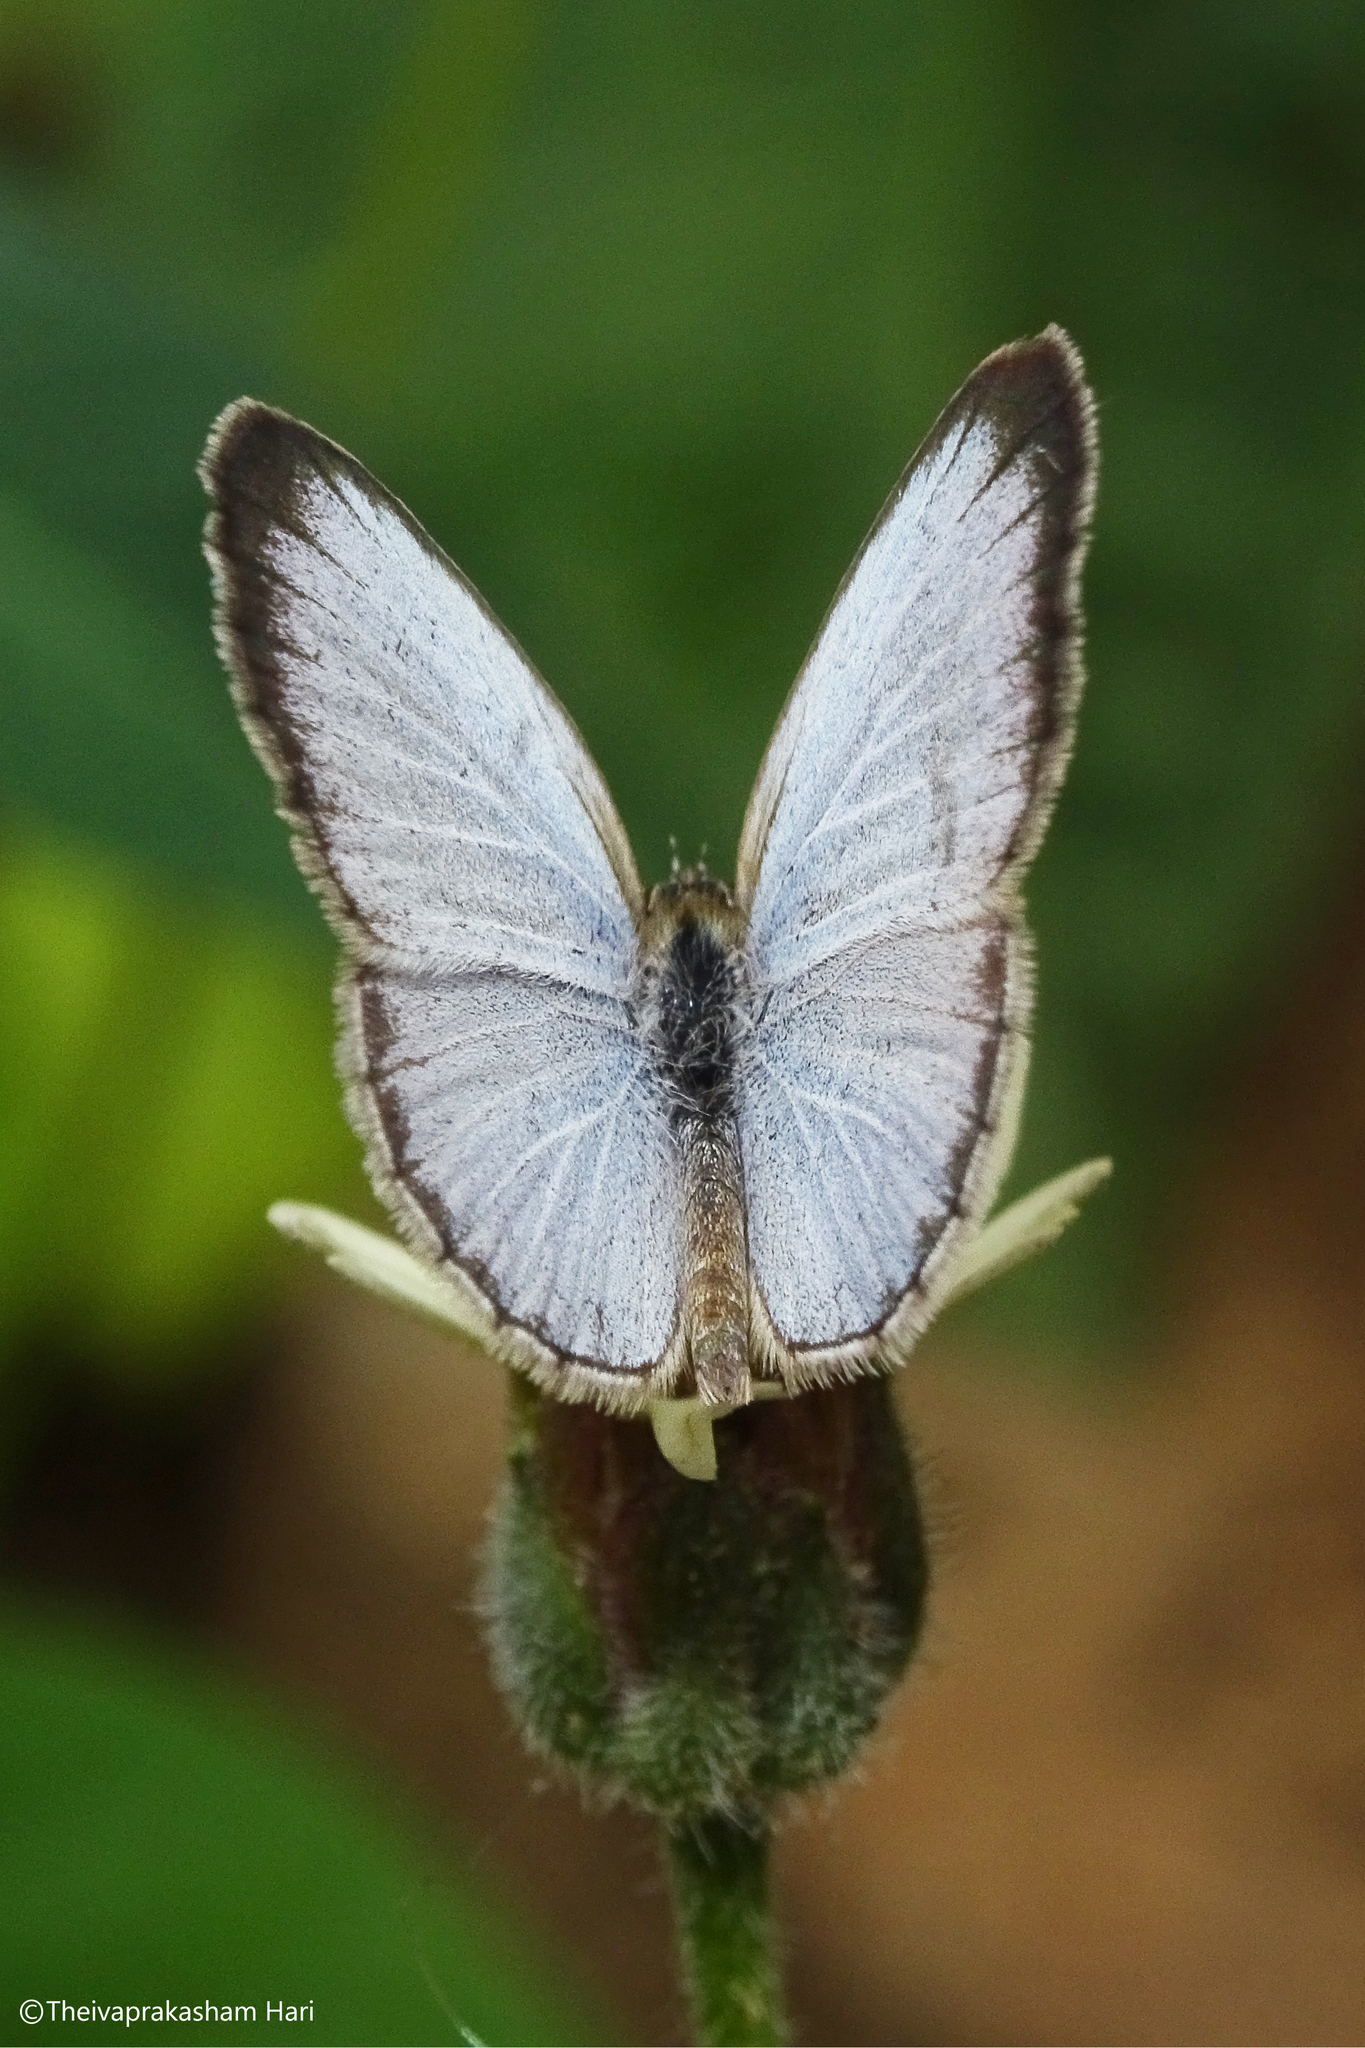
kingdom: Animalia
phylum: Arthropoda
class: Insecta
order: Lepidoptera
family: Lycaenidae
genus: Pseudozizeeria
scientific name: Pseudozizeeria maha
